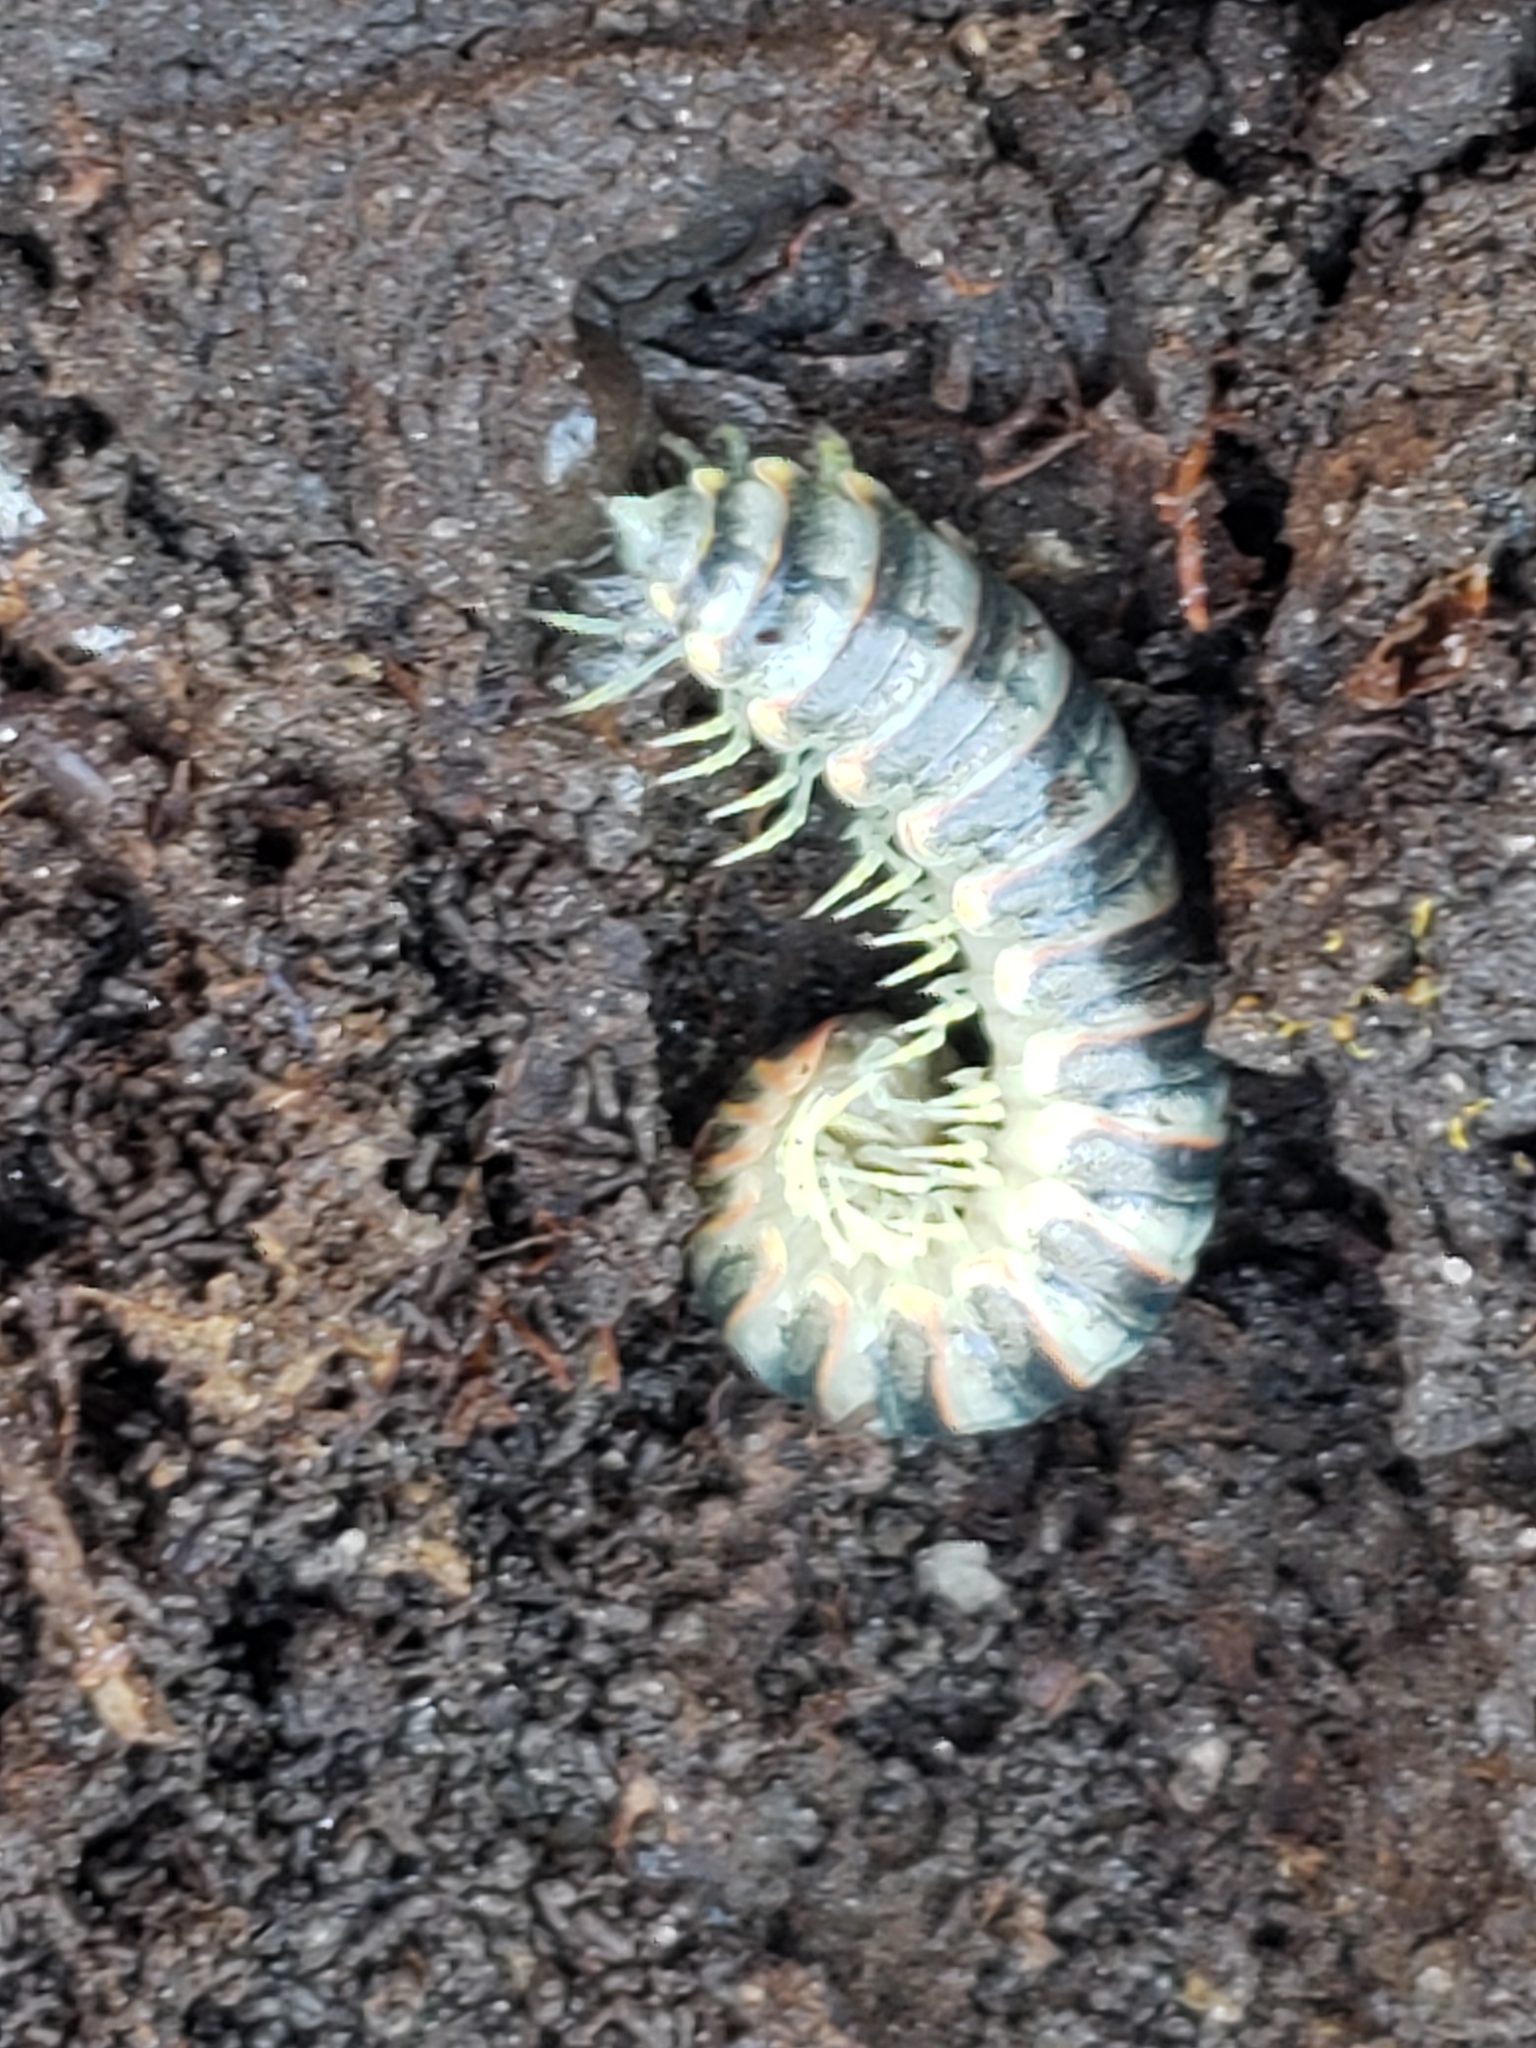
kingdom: Animalia
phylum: Arthropoda
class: Diplopoda
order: Polydesmida
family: Xystodesmidae
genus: Apheloria
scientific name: Apheloria virginiensis
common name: Black-and-gold flat millipede
